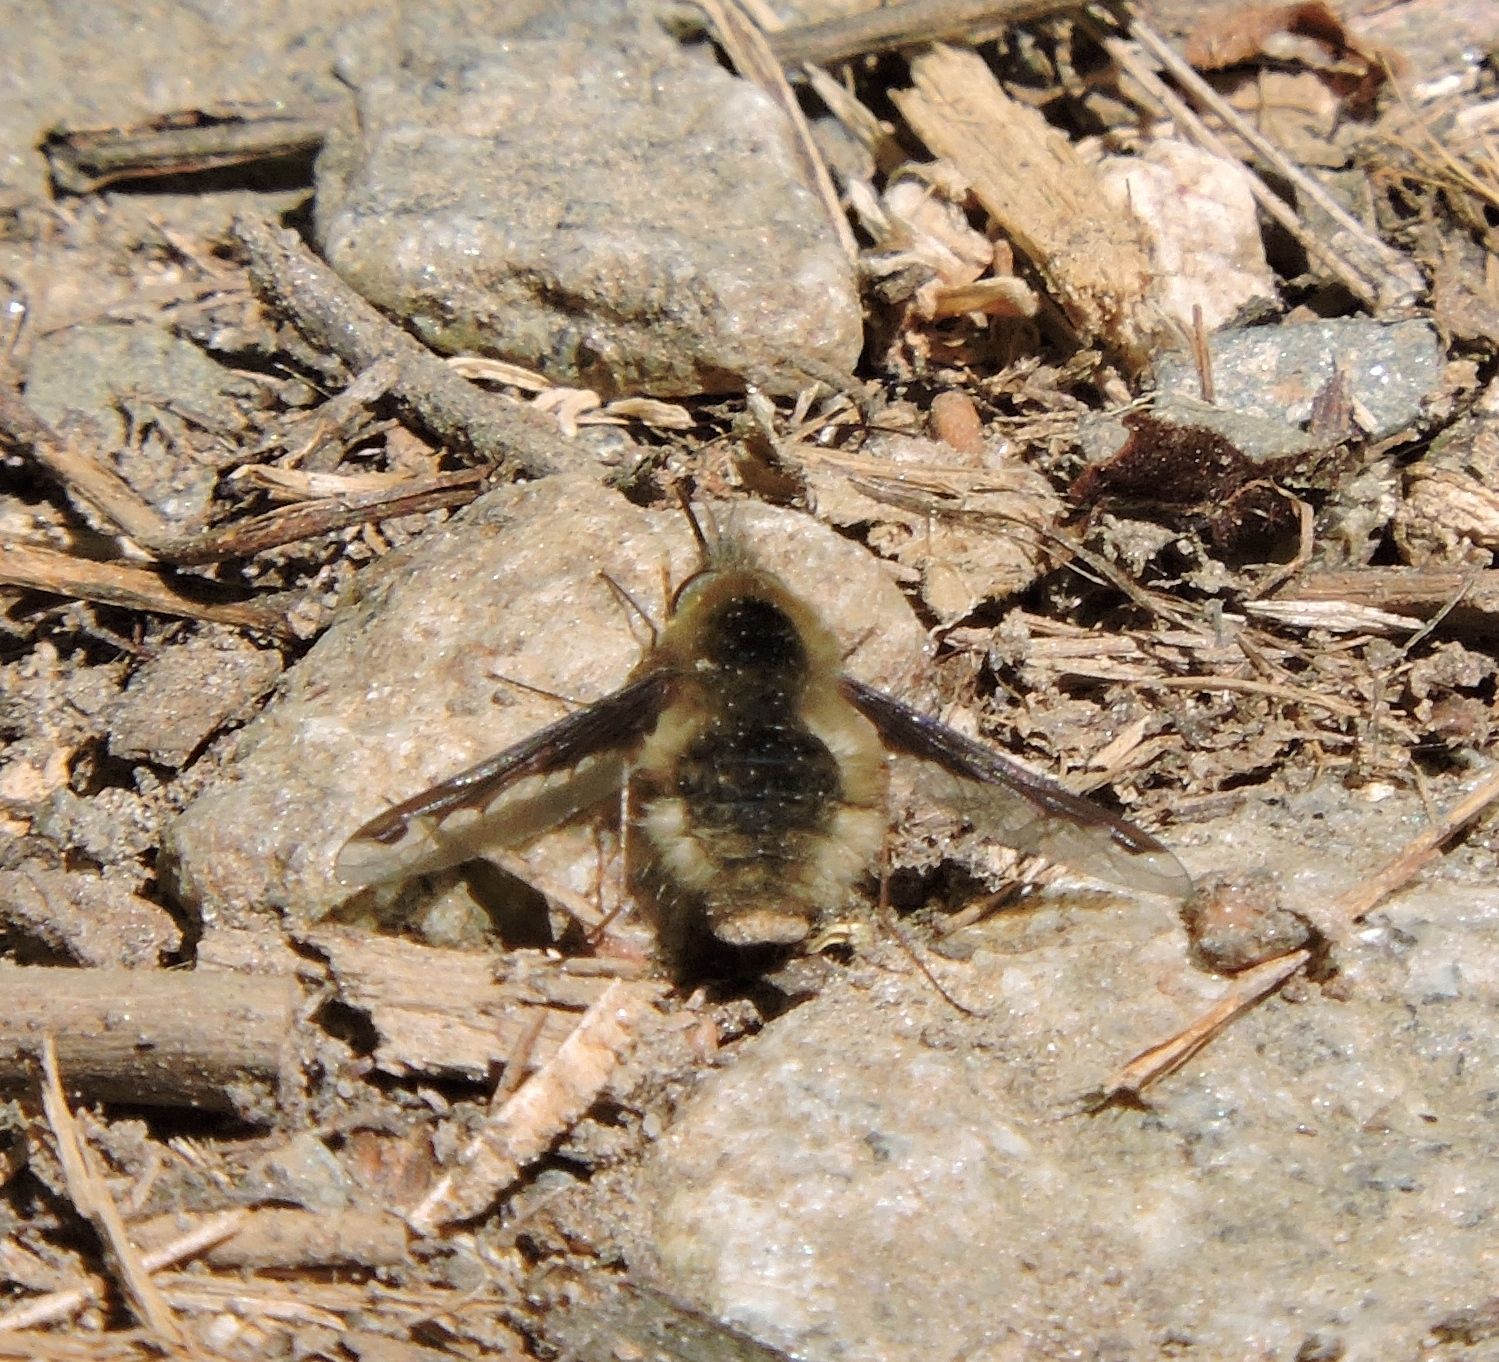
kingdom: Animalia
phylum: Arthropoda
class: Insecta
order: Diptera
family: Bombyliidae
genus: Bombylius
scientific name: Bombylius major
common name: Bee fly
